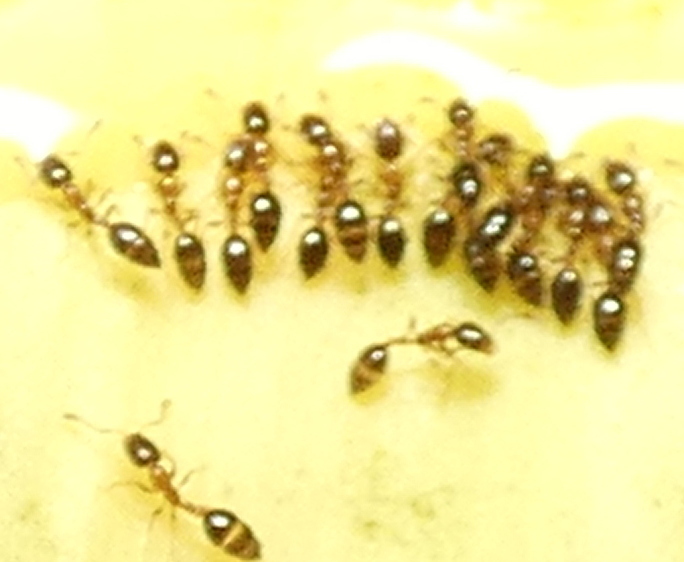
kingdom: Animalia
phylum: Arthropoda
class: Insecta
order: Hymenoptera
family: Formicidae
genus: Monomorium
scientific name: Monomorium floricola
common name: Bicolored trailing ant
